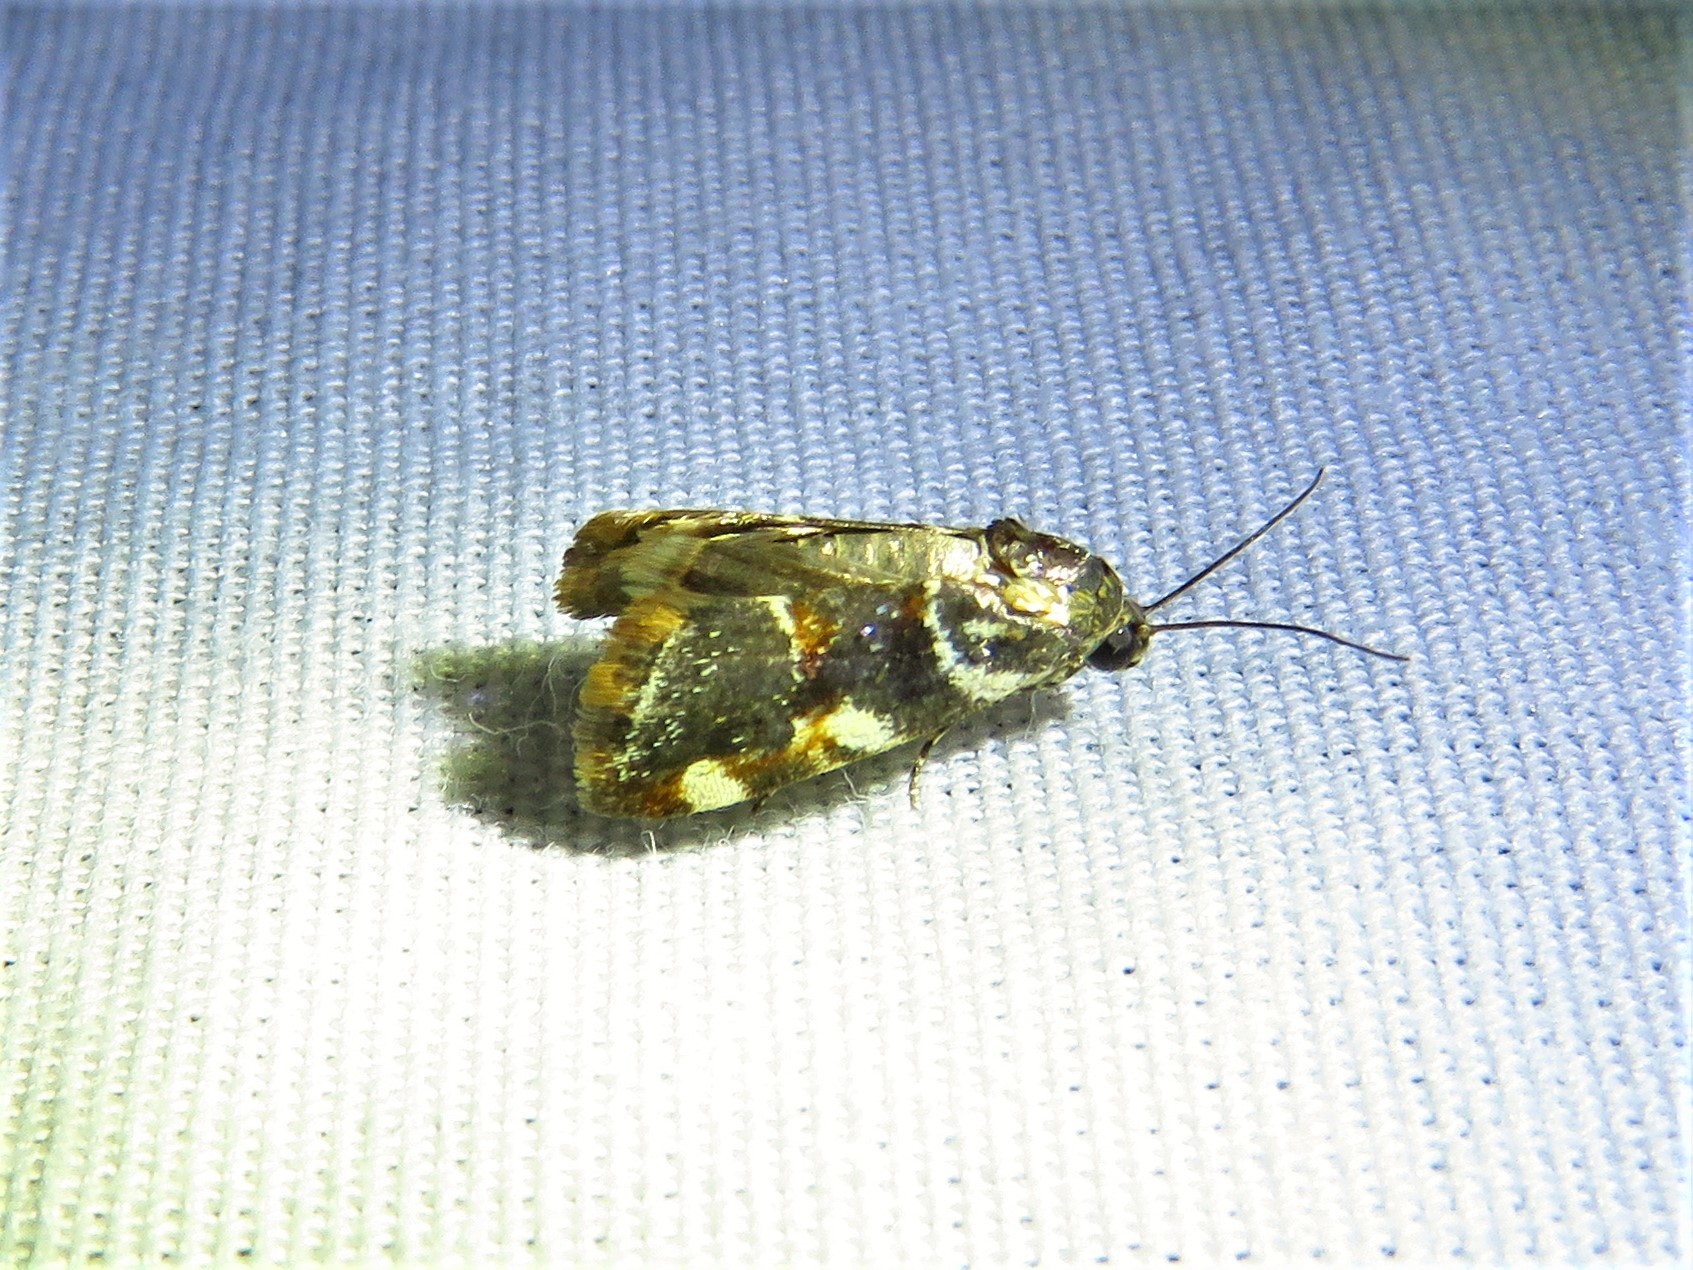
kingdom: Animalia
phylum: Arthropoda
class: Insecta
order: Lepidoptera
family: Noctuidae
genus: Spragueia
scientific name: Spragueia jaguaralis
